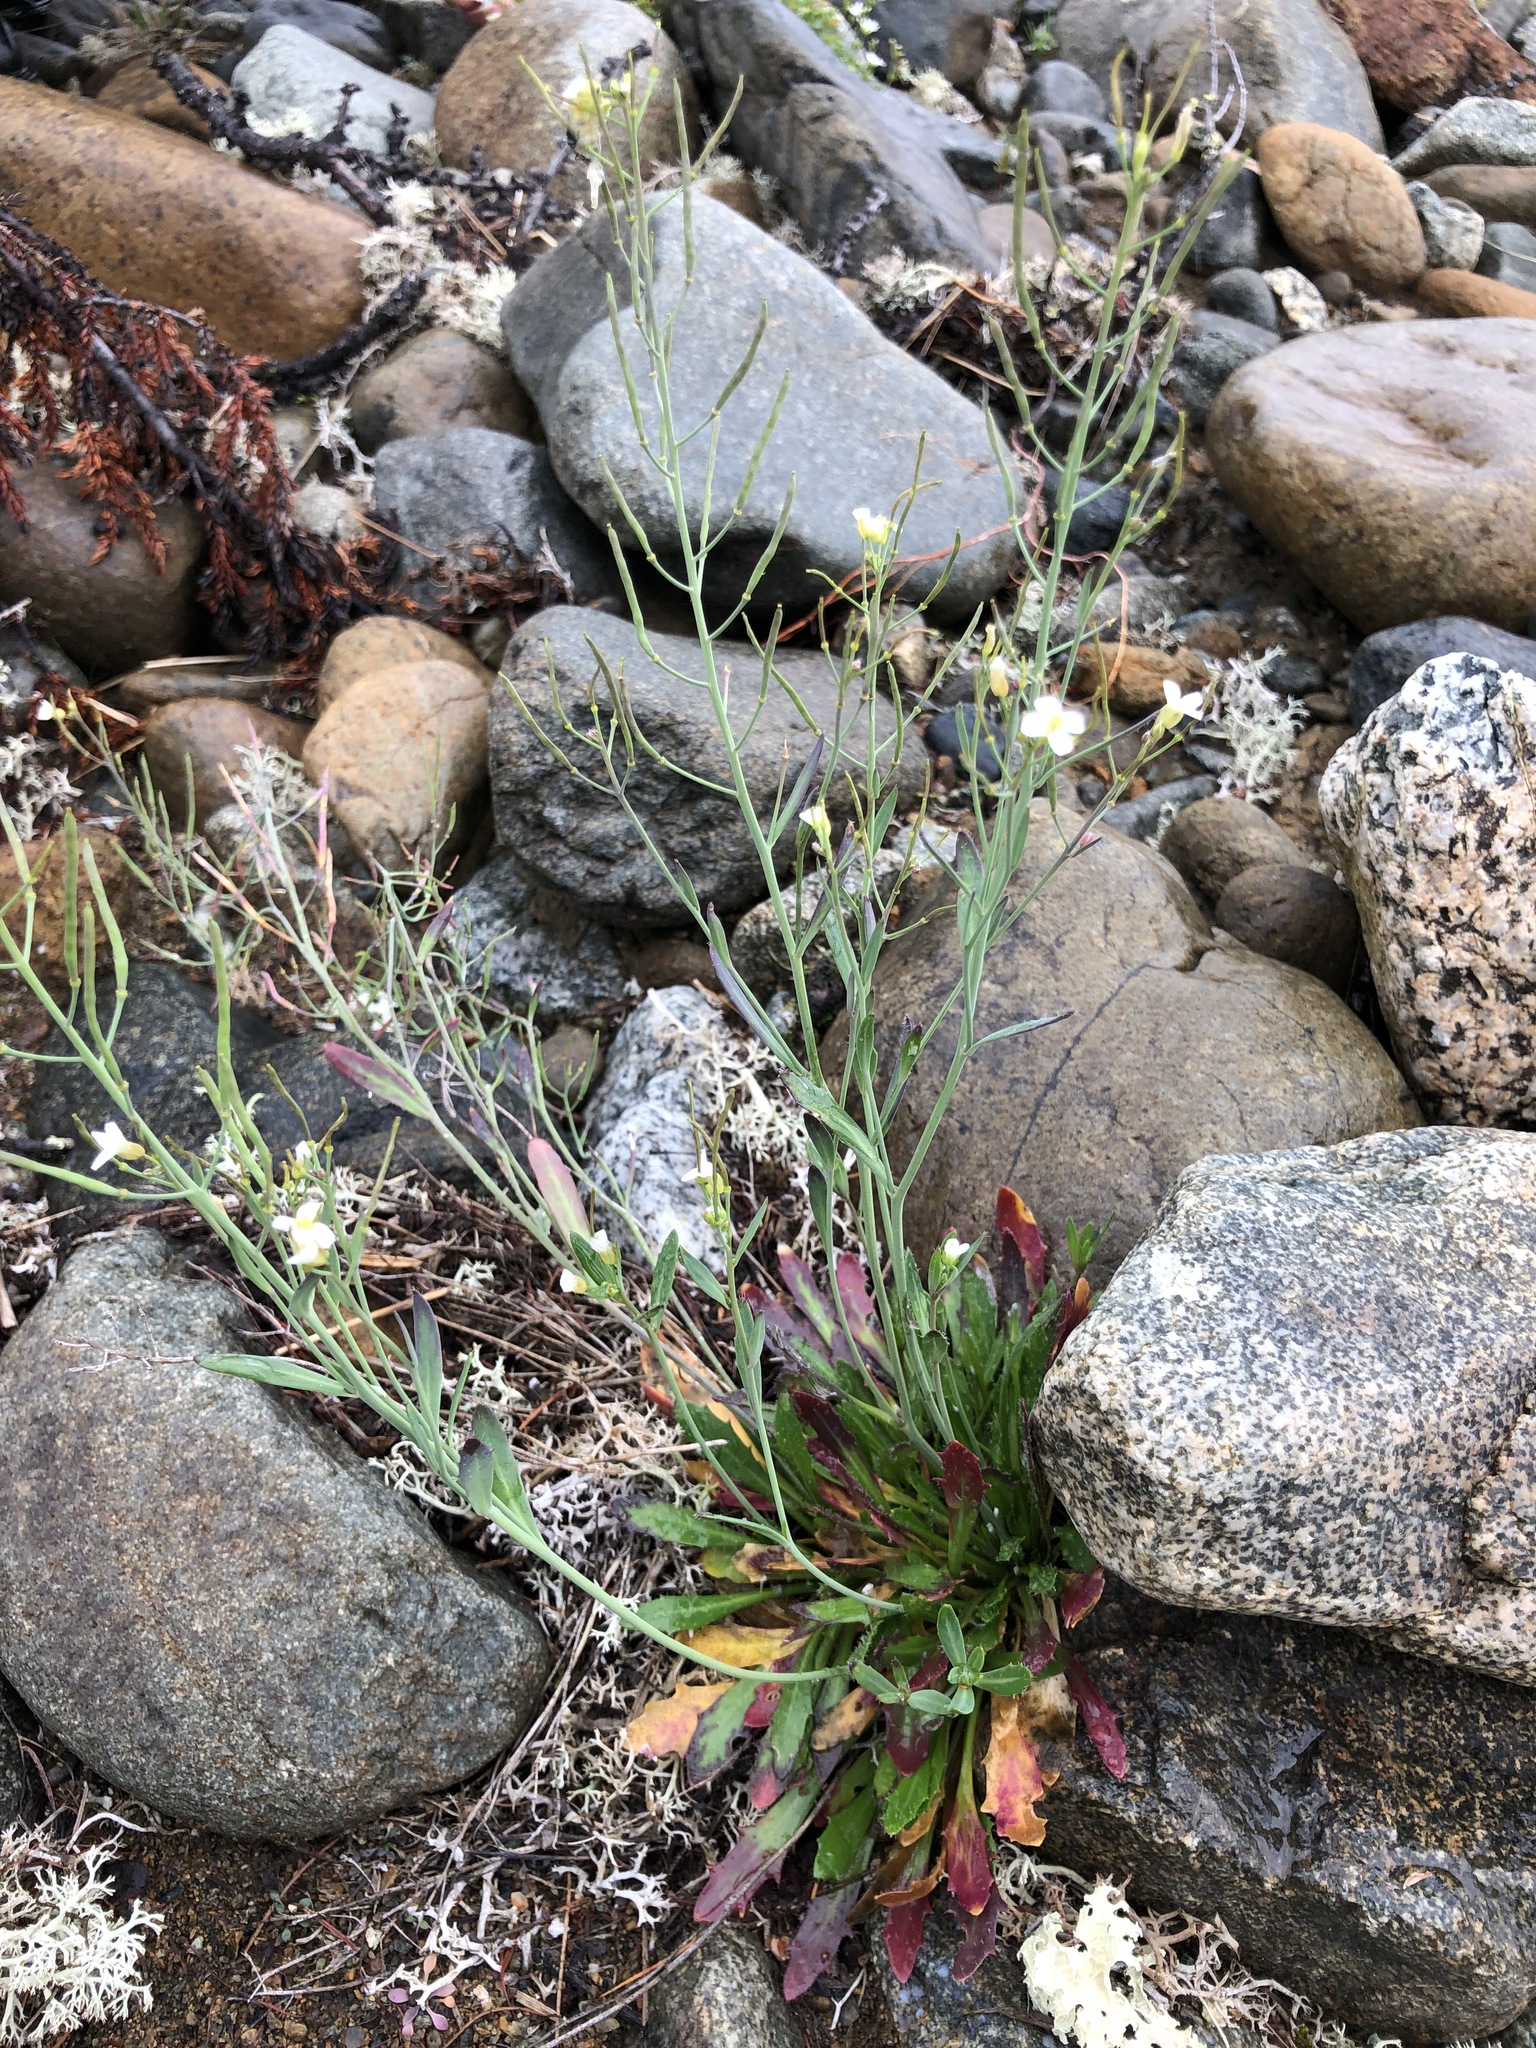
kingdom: Plantae
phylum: Tracheophyta
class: Magnoliopsida
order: Brassicales
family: Brassicaceae
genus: Arabidopsis
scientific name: Arabidopsis lyrata
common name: Lyrate rockcress
